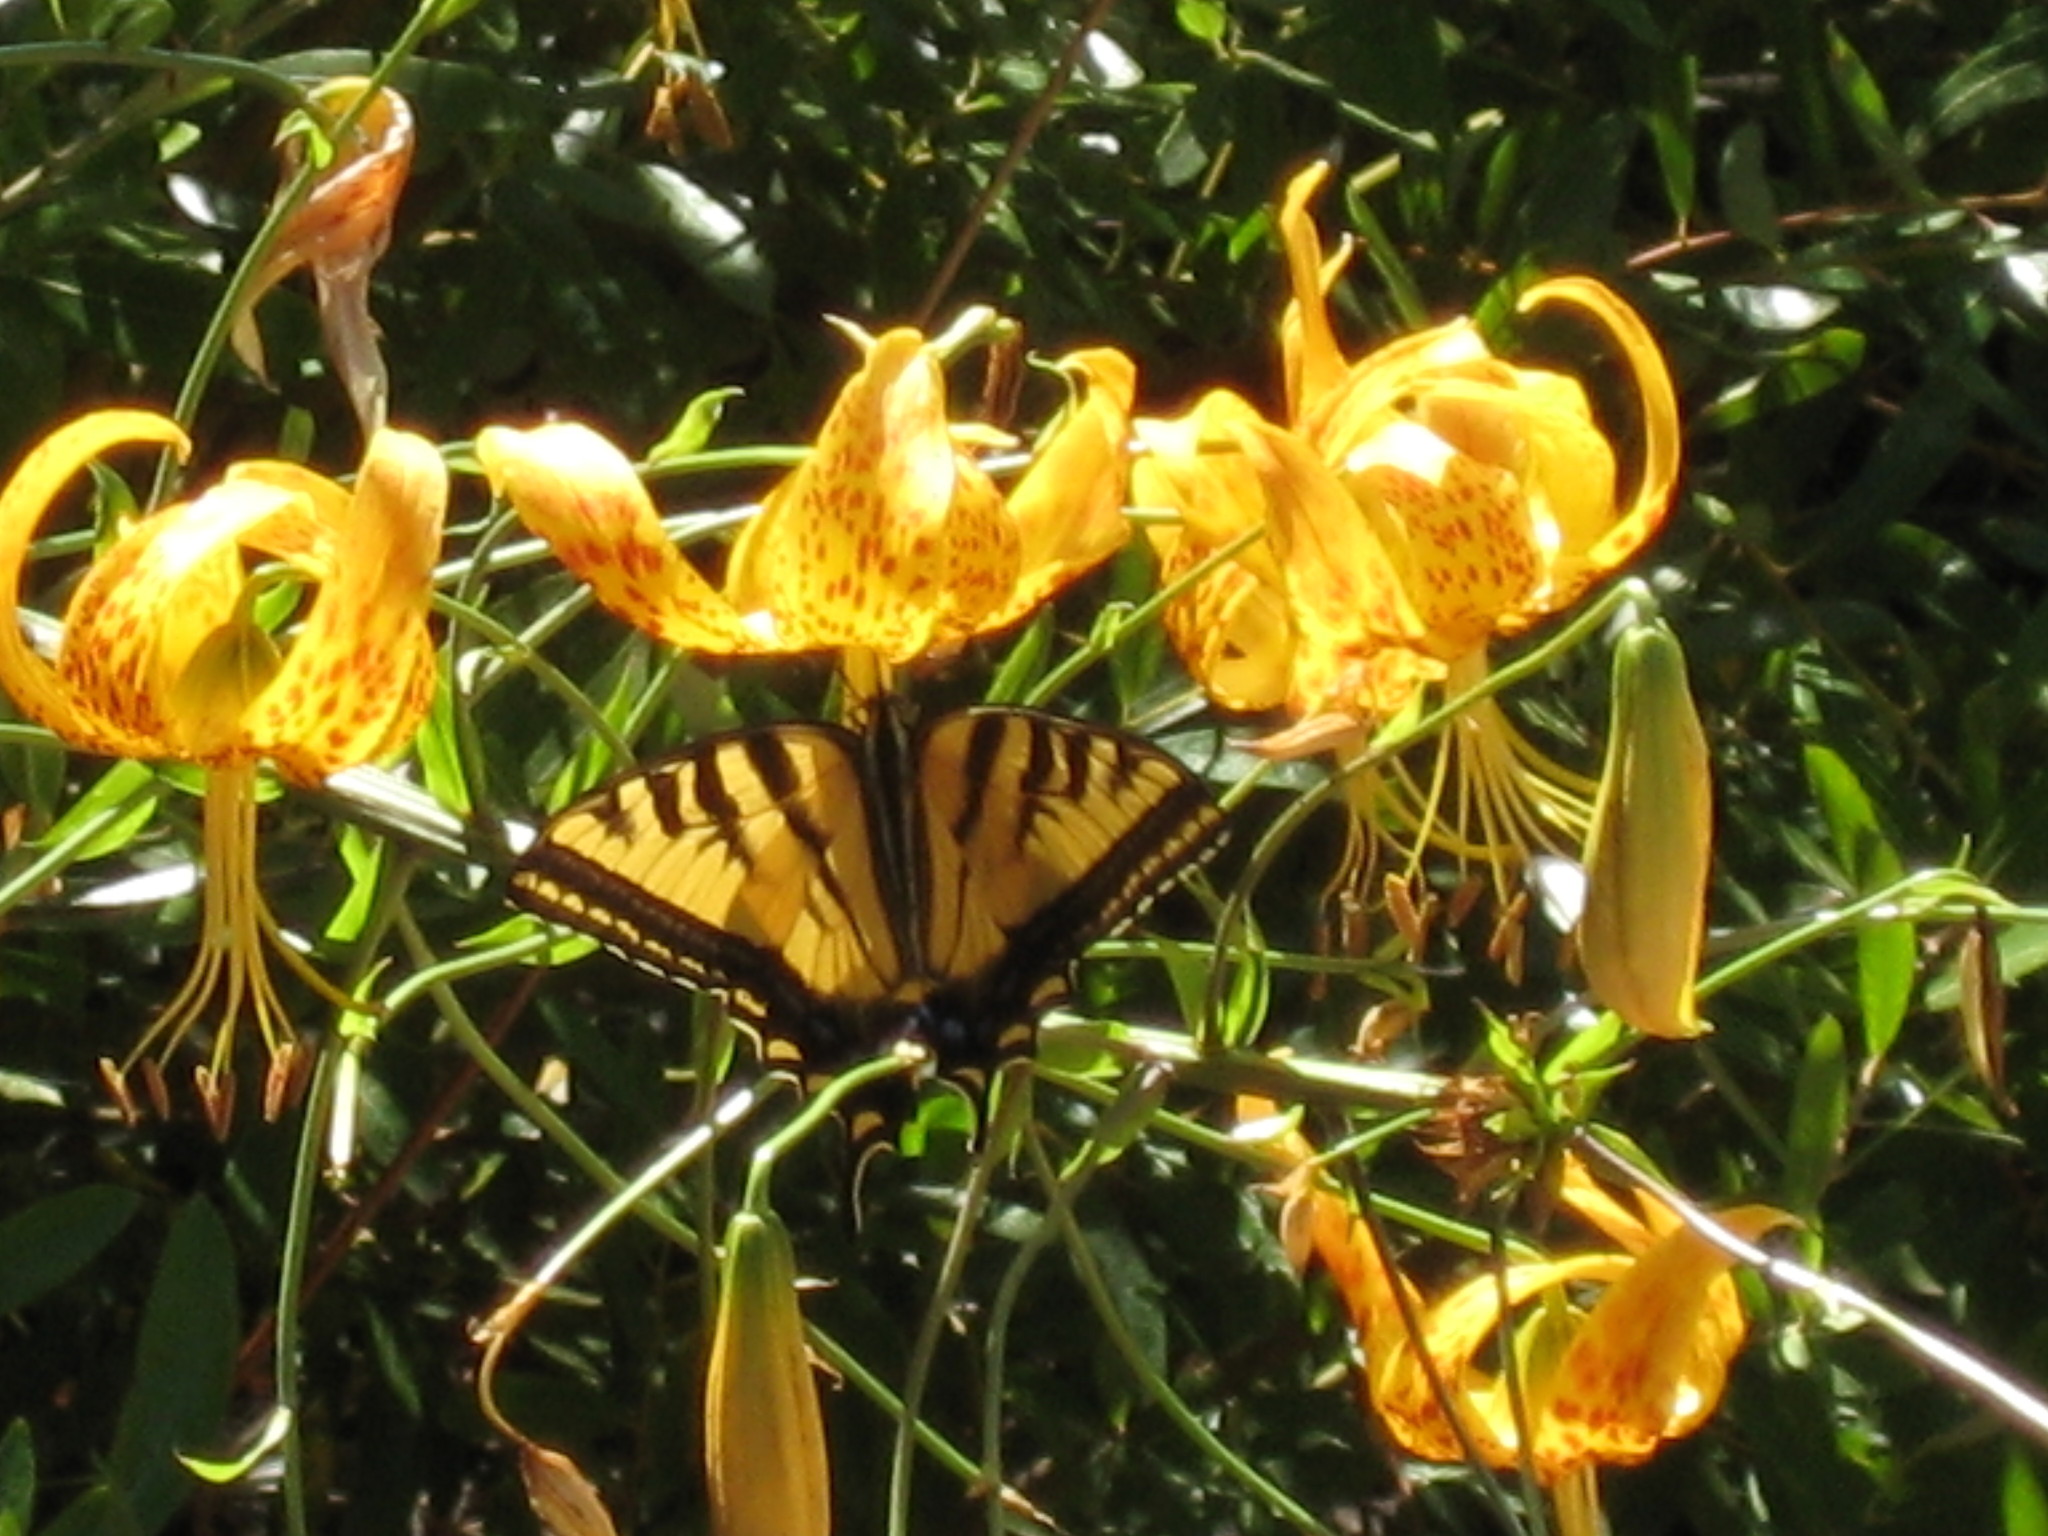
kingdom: Plantae
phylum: Tracheophyta
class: Liliopsida
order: Liliales
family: Liliaceae
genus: Lilium
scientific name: Lilium humboldtii
